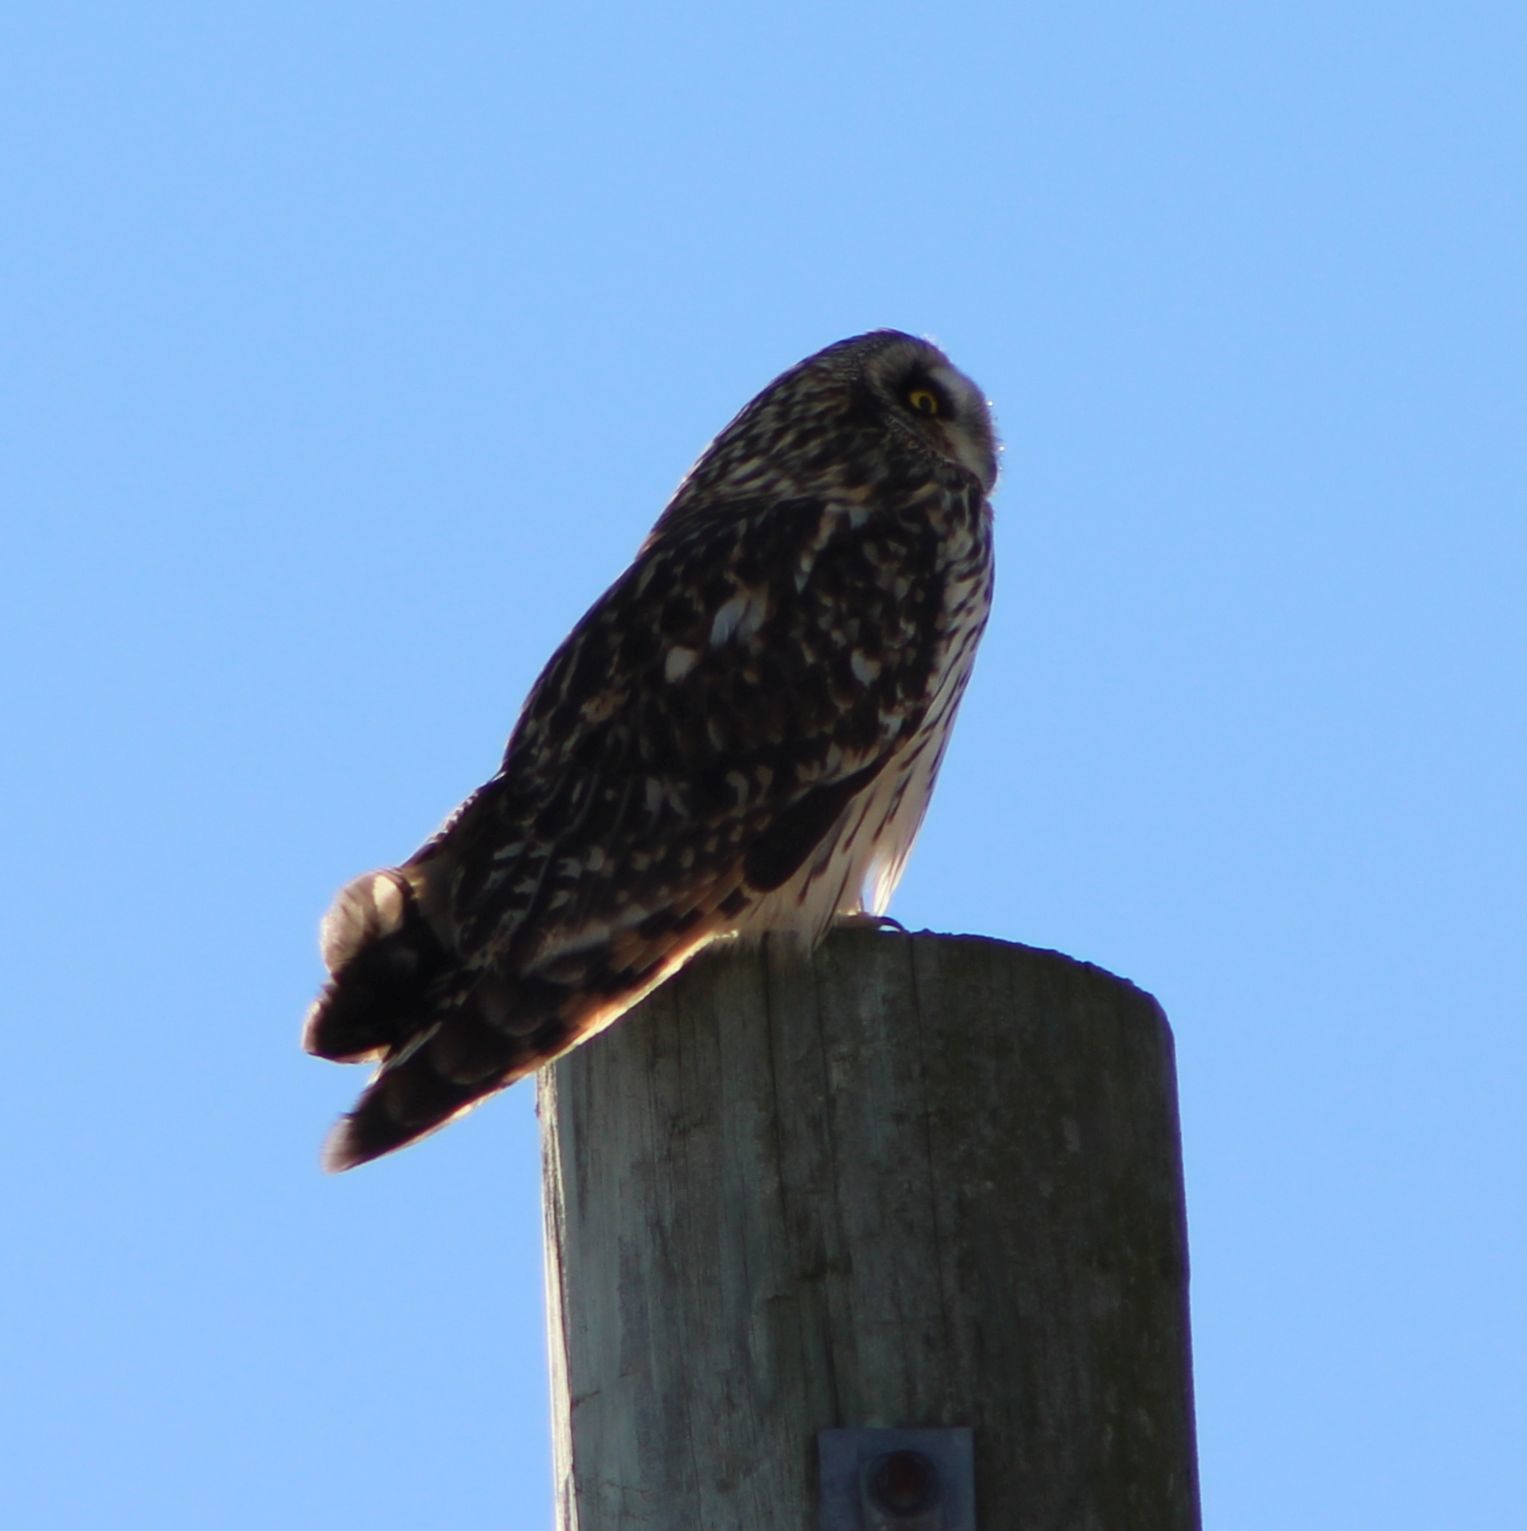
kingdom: Animalia
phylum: Chordata
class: Aves
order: Strigiformes
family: Strigidae
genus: Asio
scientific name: Asio flammeus
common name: Short-eared owl
